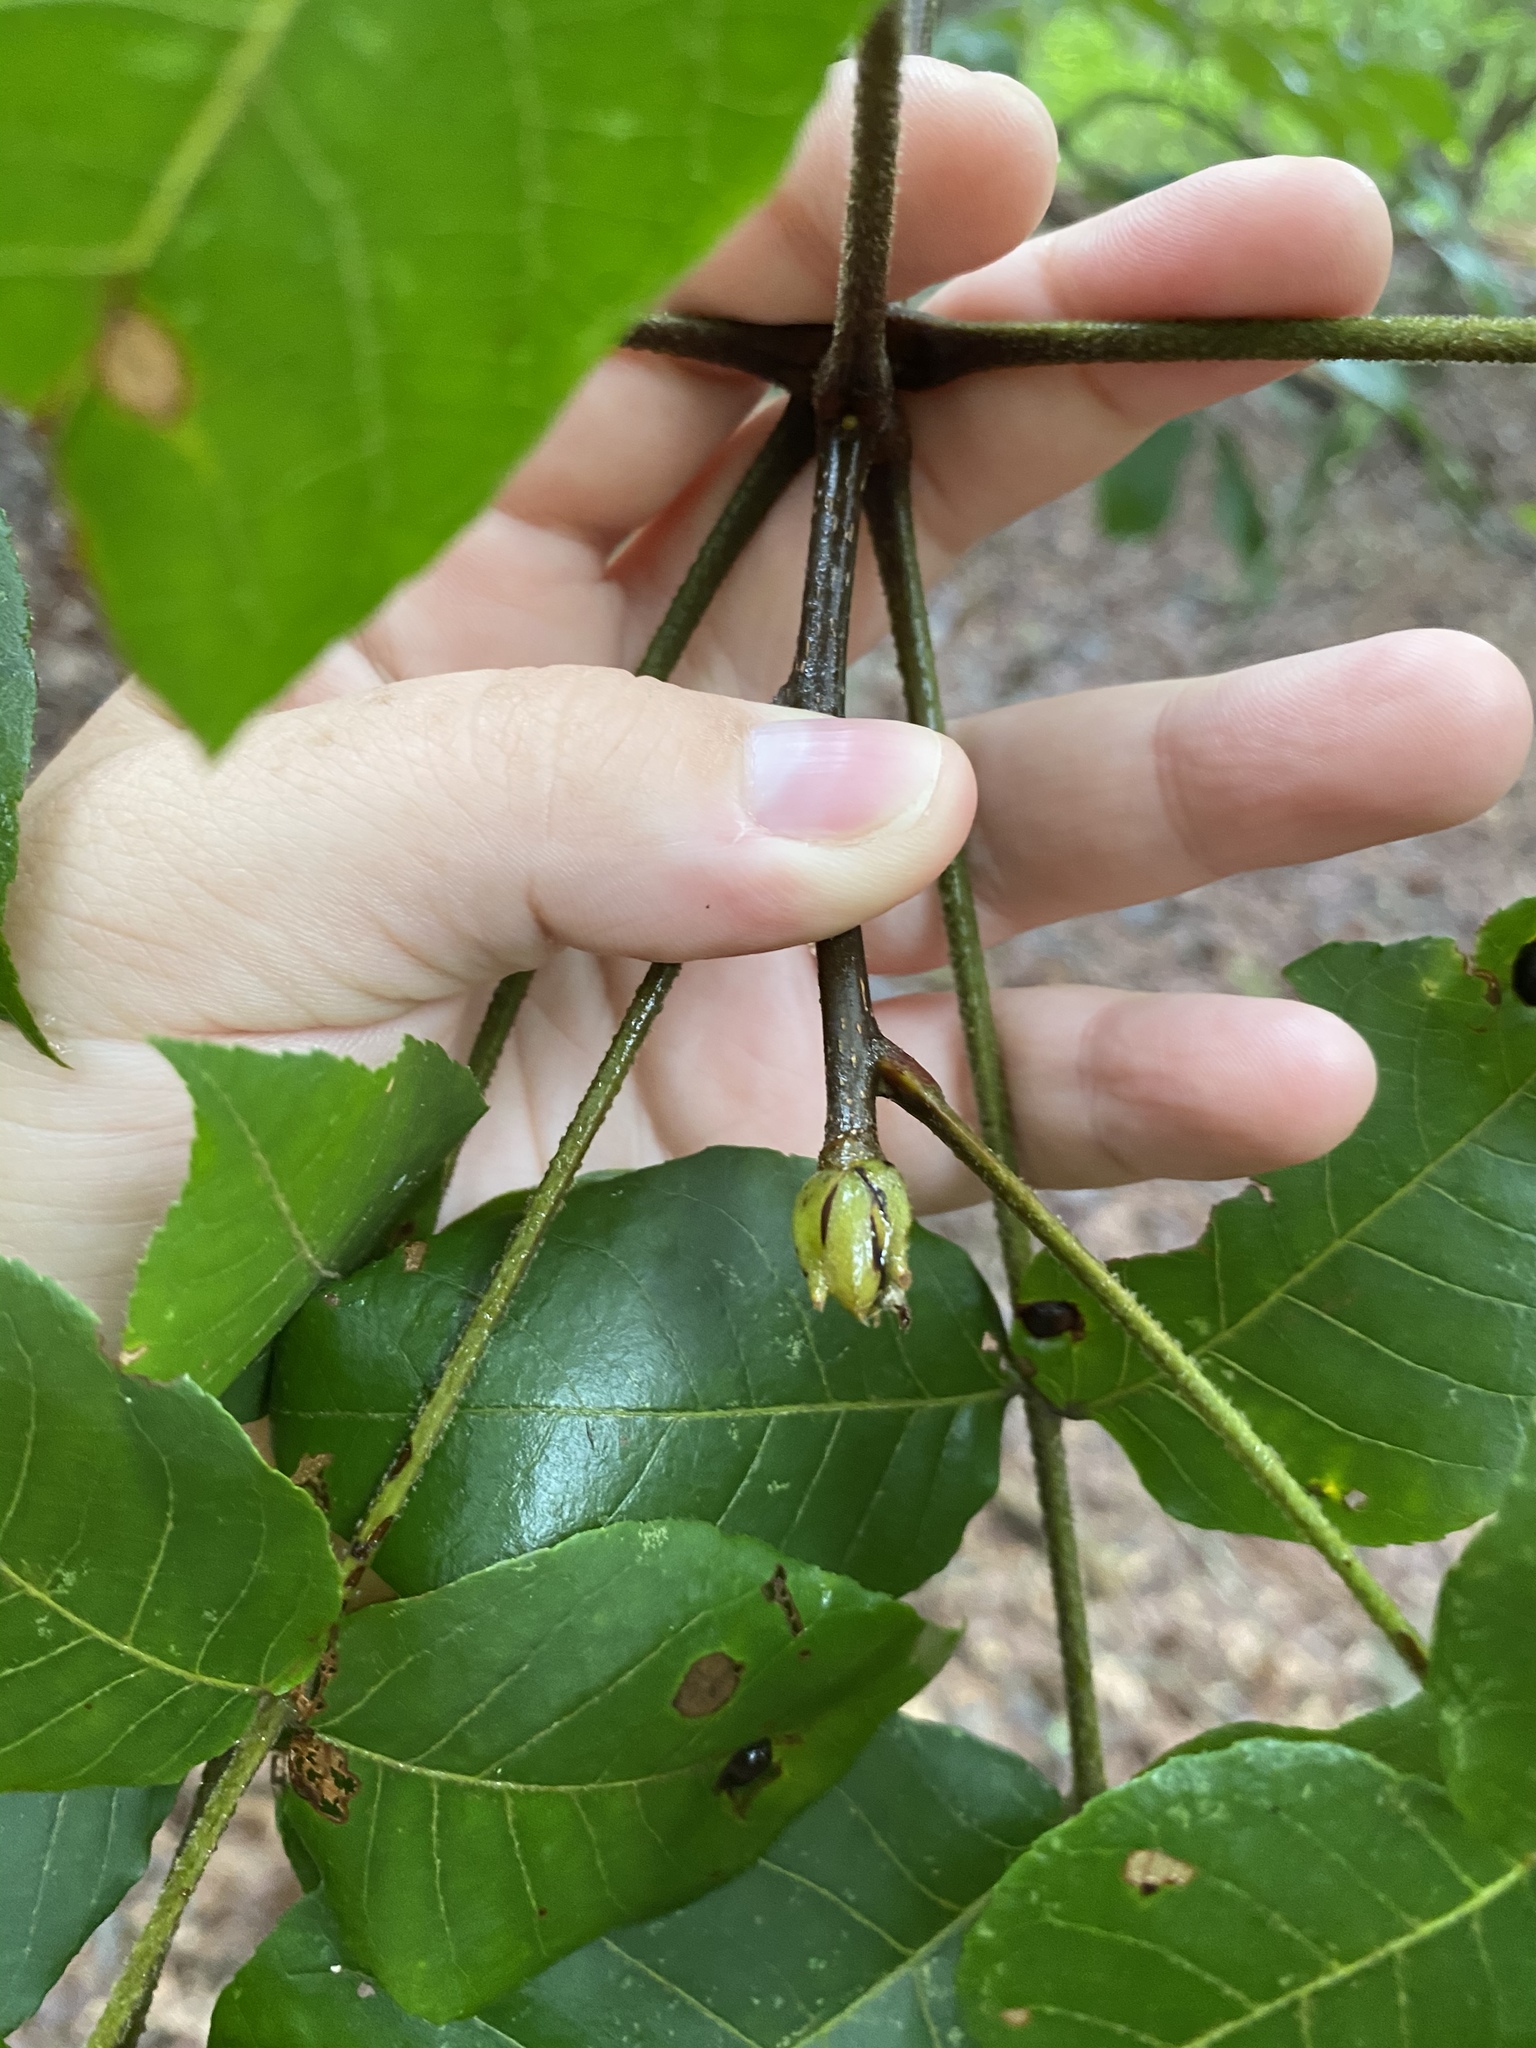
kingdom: Plantae
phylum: Tracheophyta
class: Magnoliopsida
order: Fagales
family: Juglandaceae
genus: Carya
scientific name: Carya pallida
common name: Sand hickory
